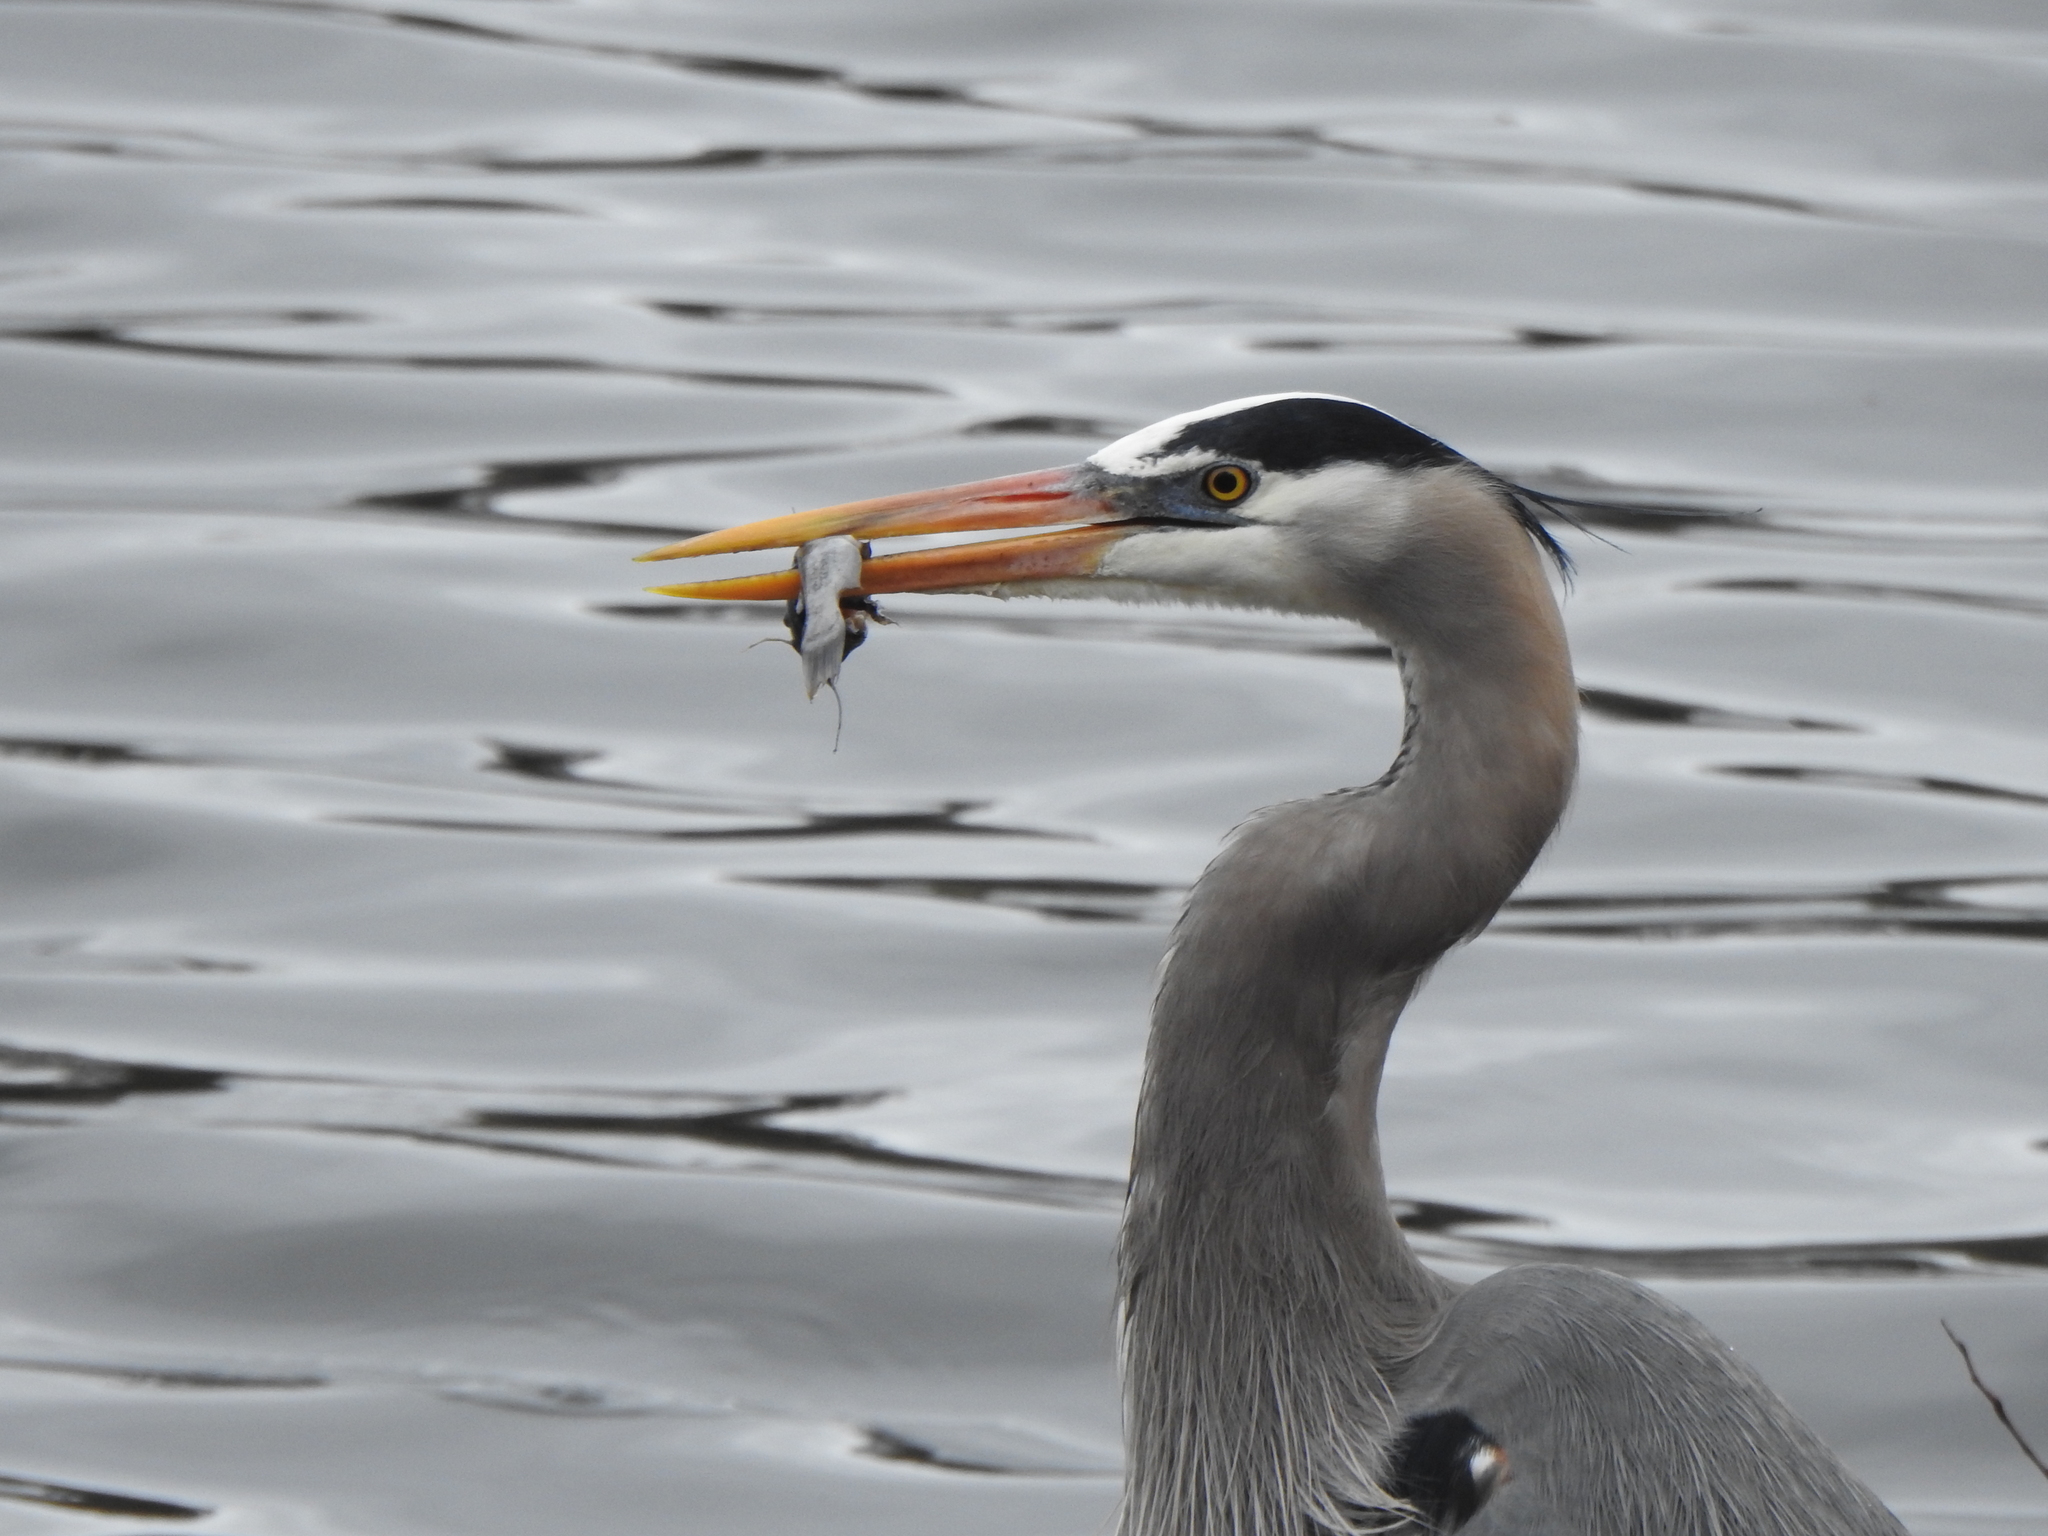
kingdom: Animalia
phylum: Chordata
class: Aves
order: Pelecaniformes
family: Ardeidae
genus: Ardea
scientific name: Ardea herodias
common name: Great blue heron
